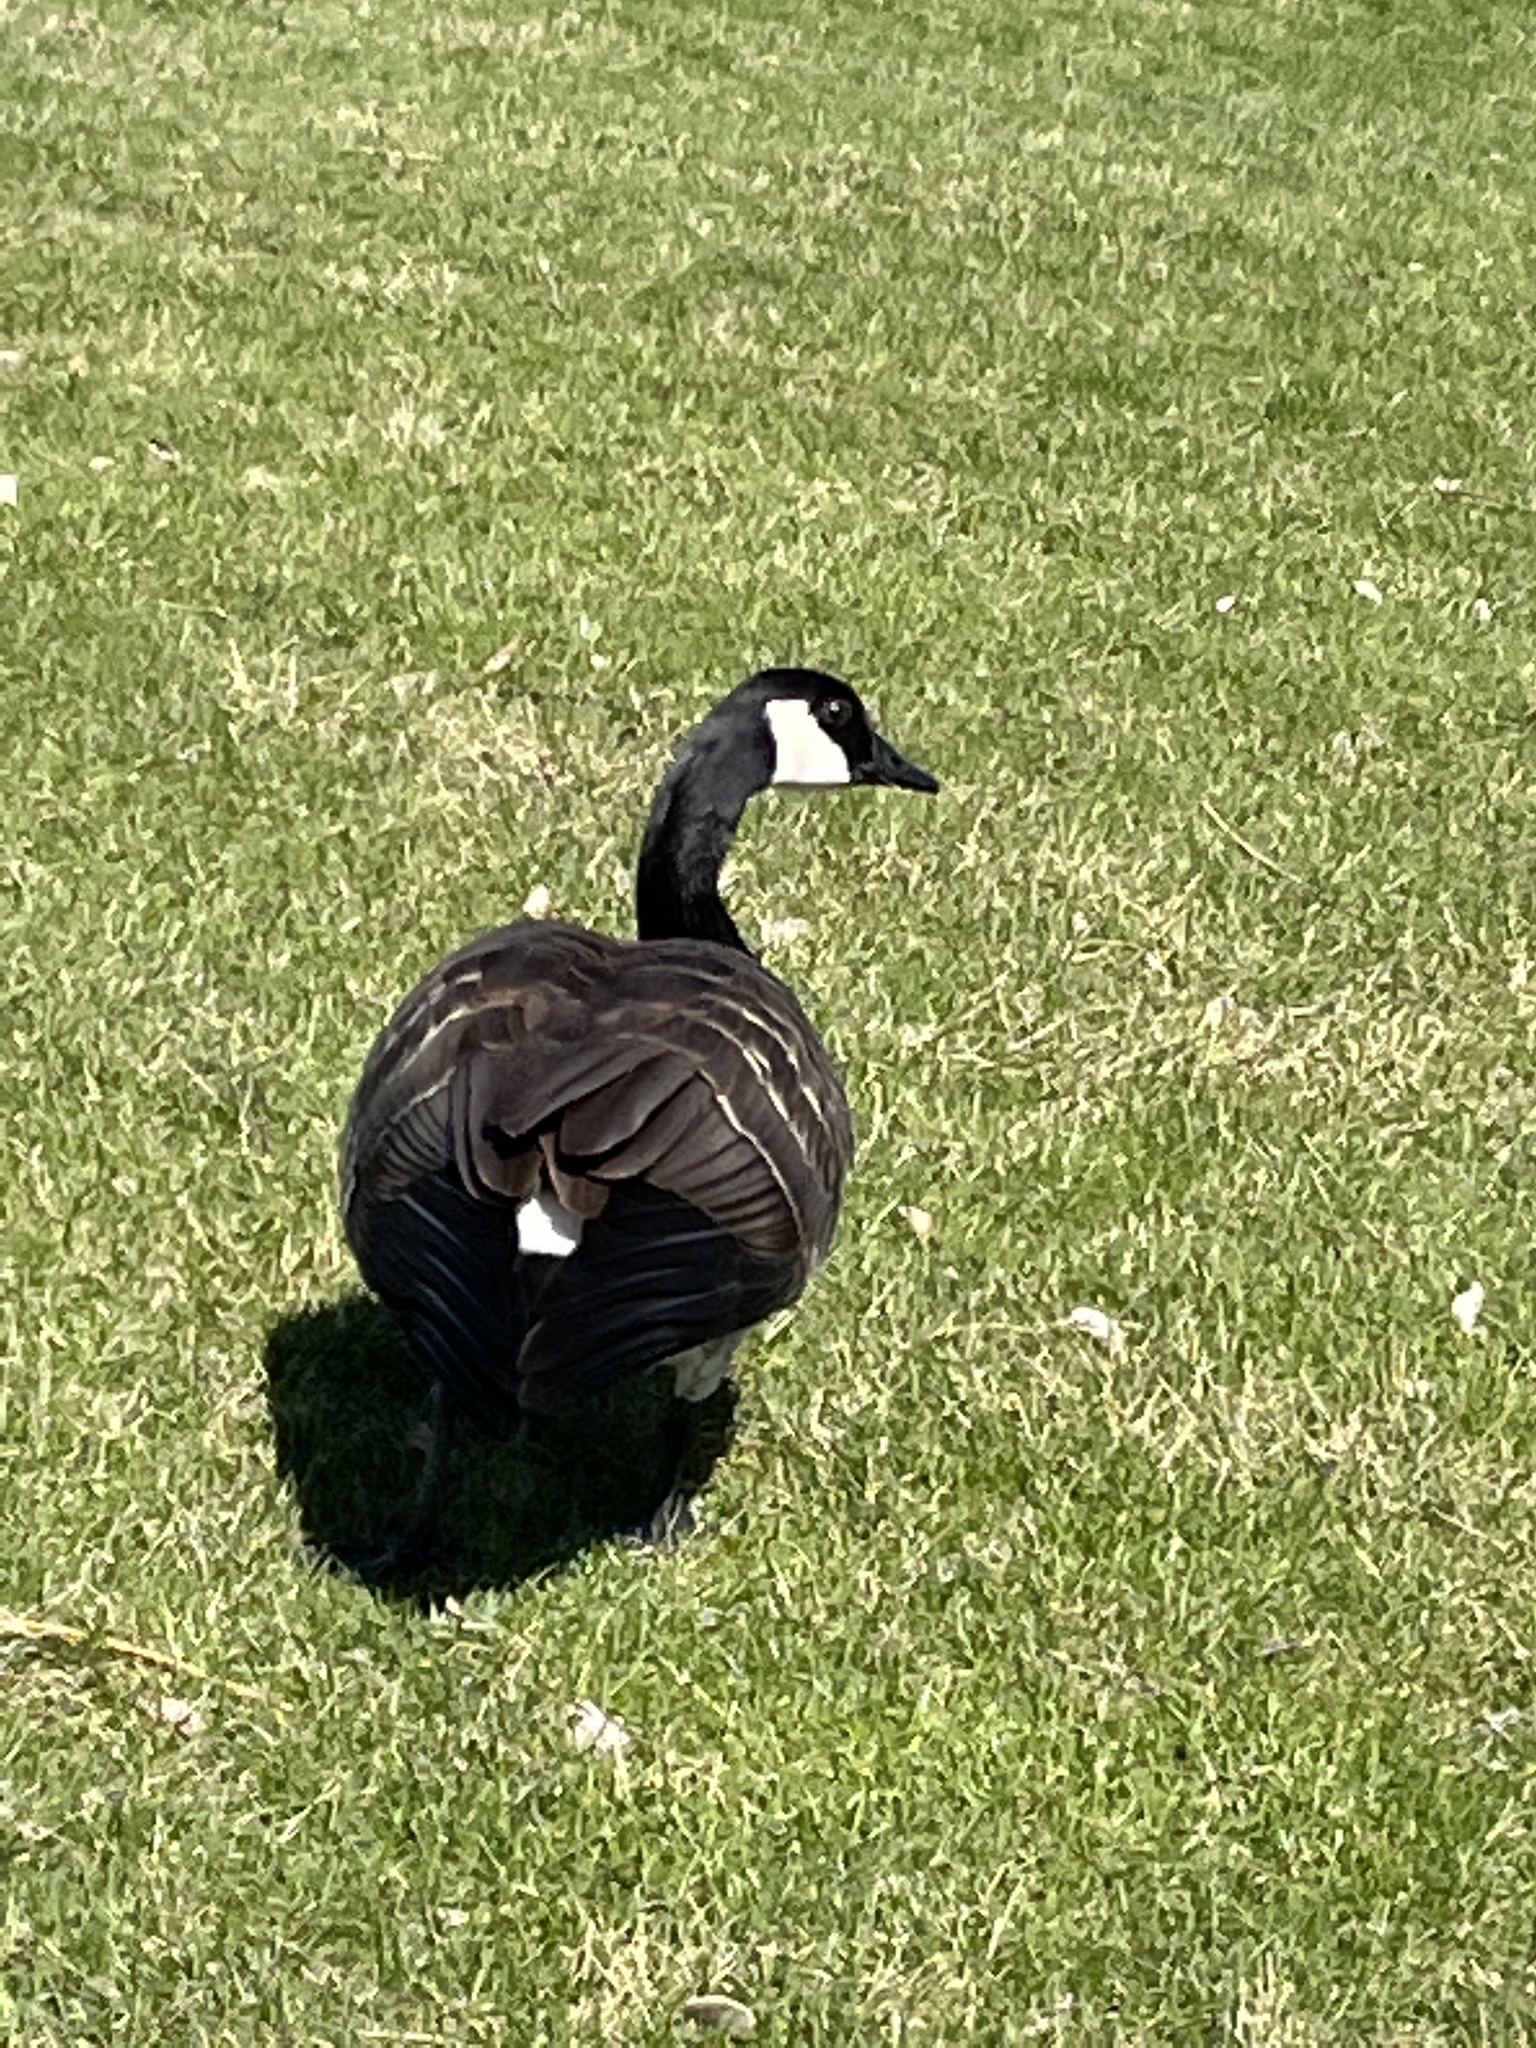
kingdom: Animalia
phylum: Chordata
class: Aves
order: Anseriformes
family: Anatidae
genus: Branta
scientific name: Branta canadensis
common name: Canada goose
